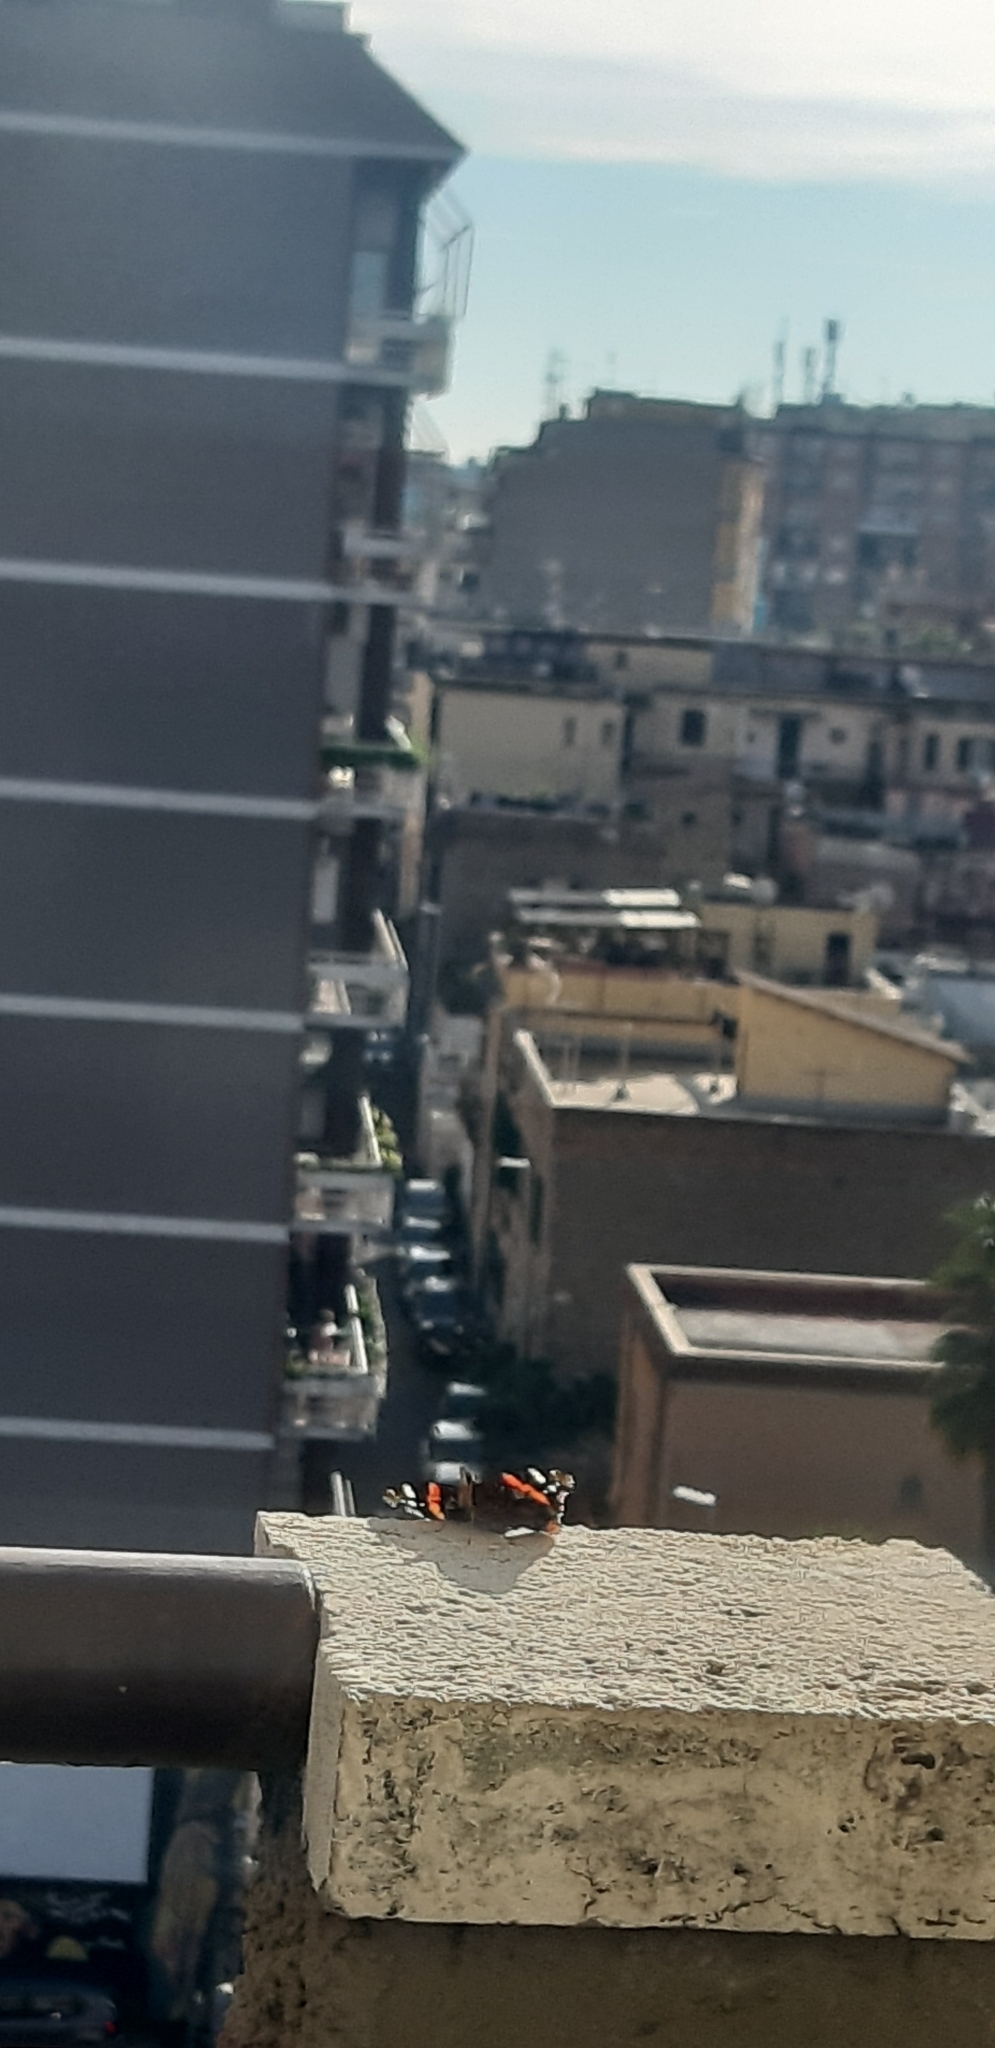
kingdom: Animalia
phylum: Arthropoda
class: Insecta
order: Lepidoptera
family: Nymphalidae
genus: Vanessa
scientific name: Vanessa atalanta
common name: Red admiral
